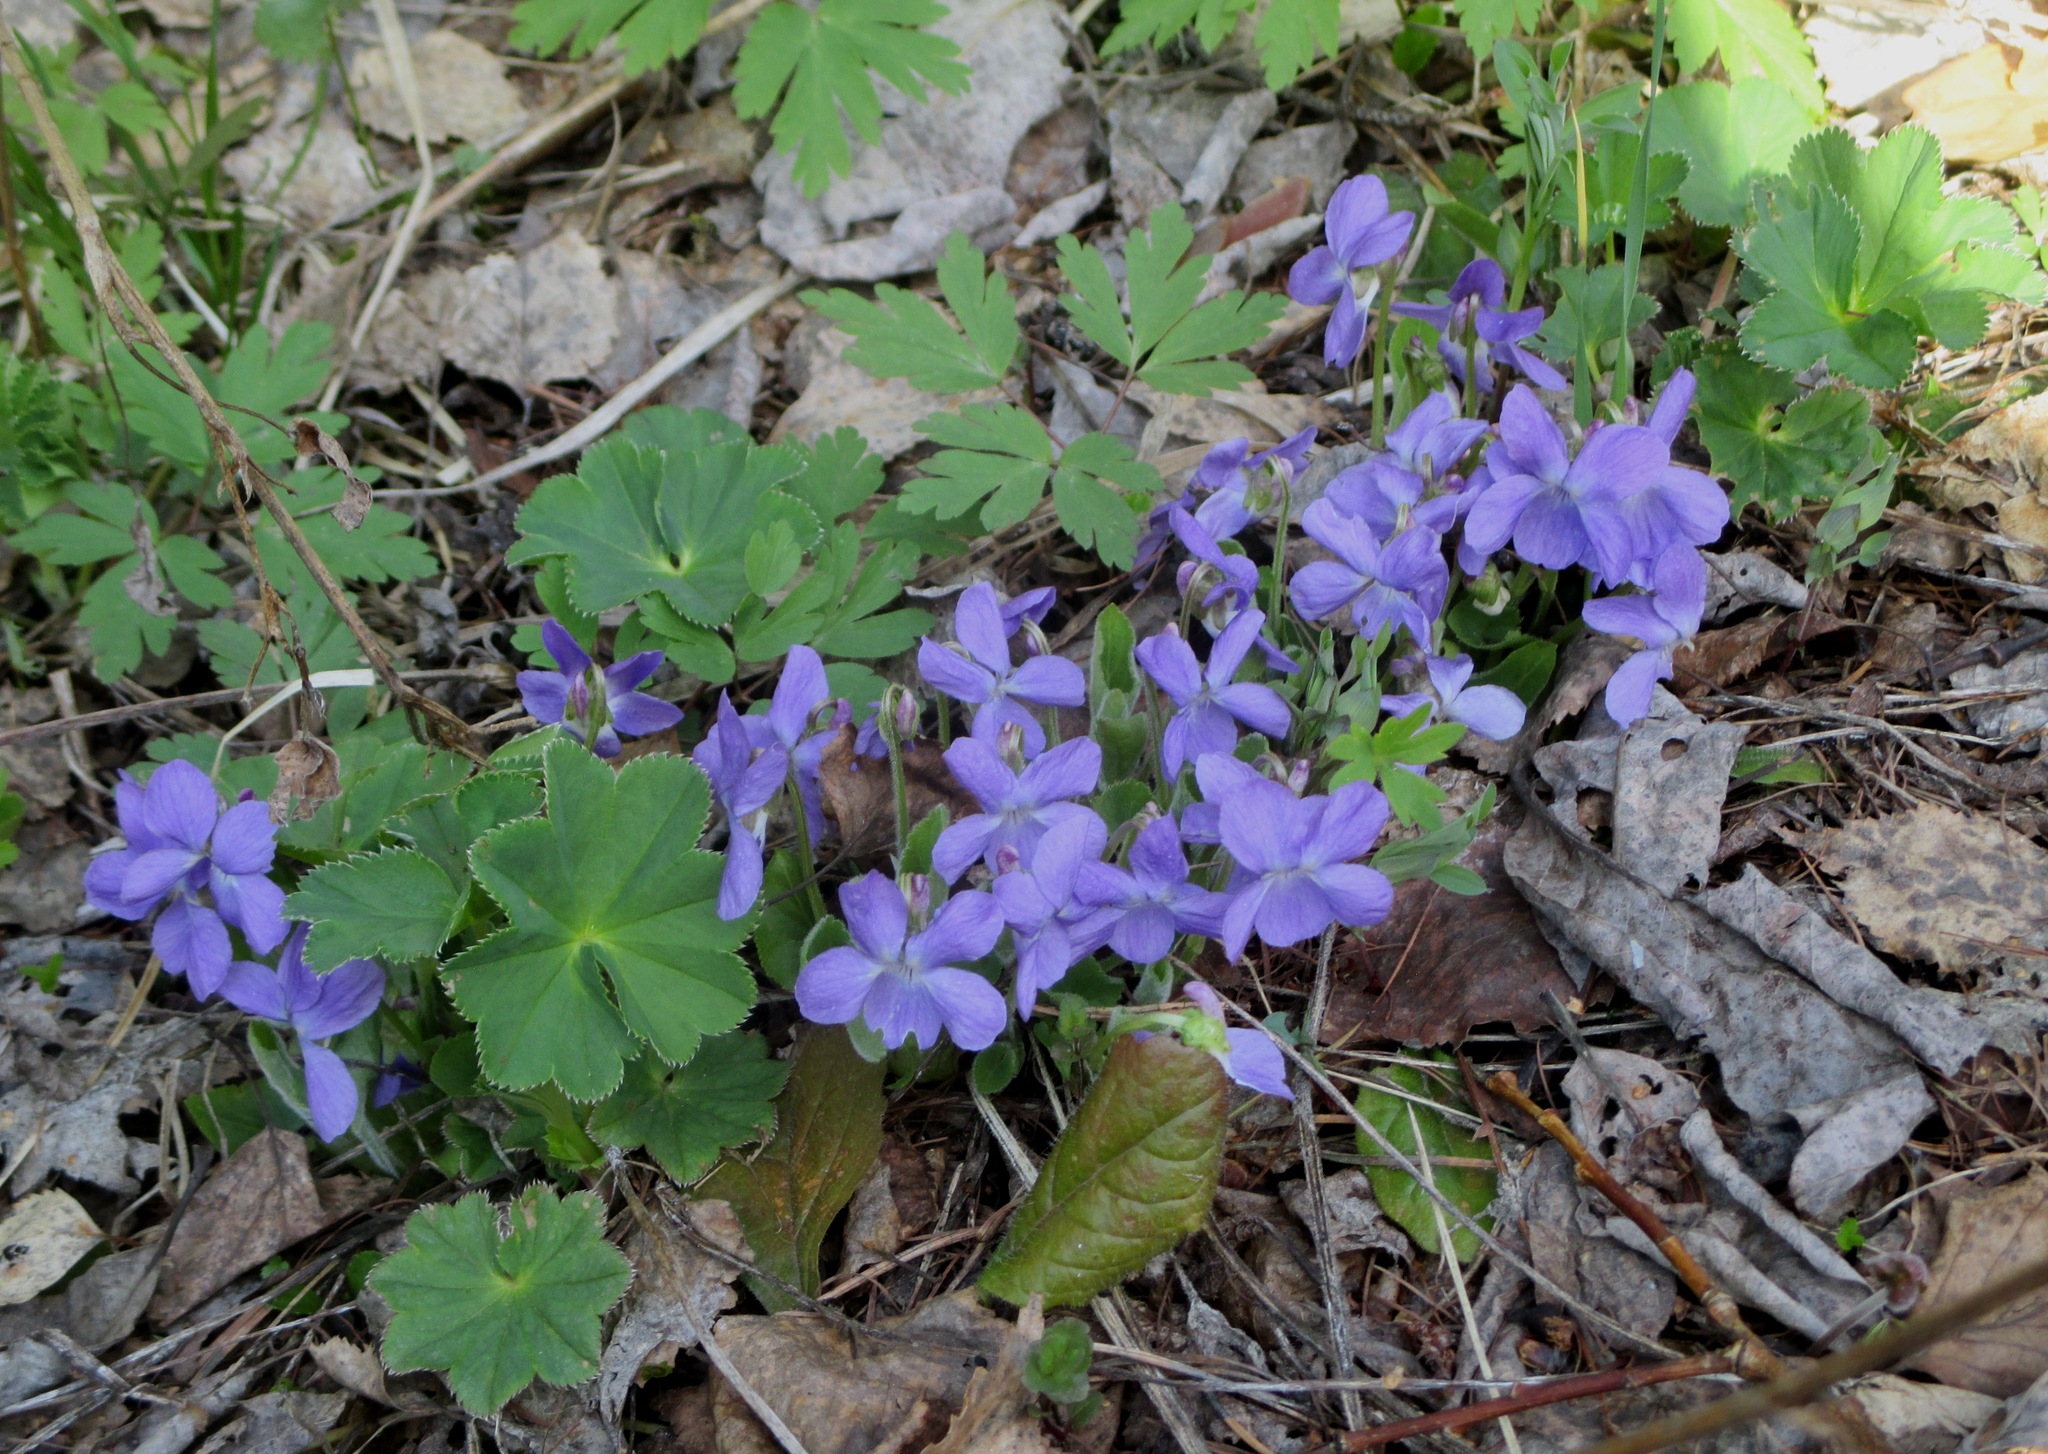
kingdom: Plantae
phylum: Tracheophyta
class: Magnoliopsida
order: Malpighiales
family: Violaceae
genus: Viola
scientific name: Viola hirta
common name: Hairy violet
